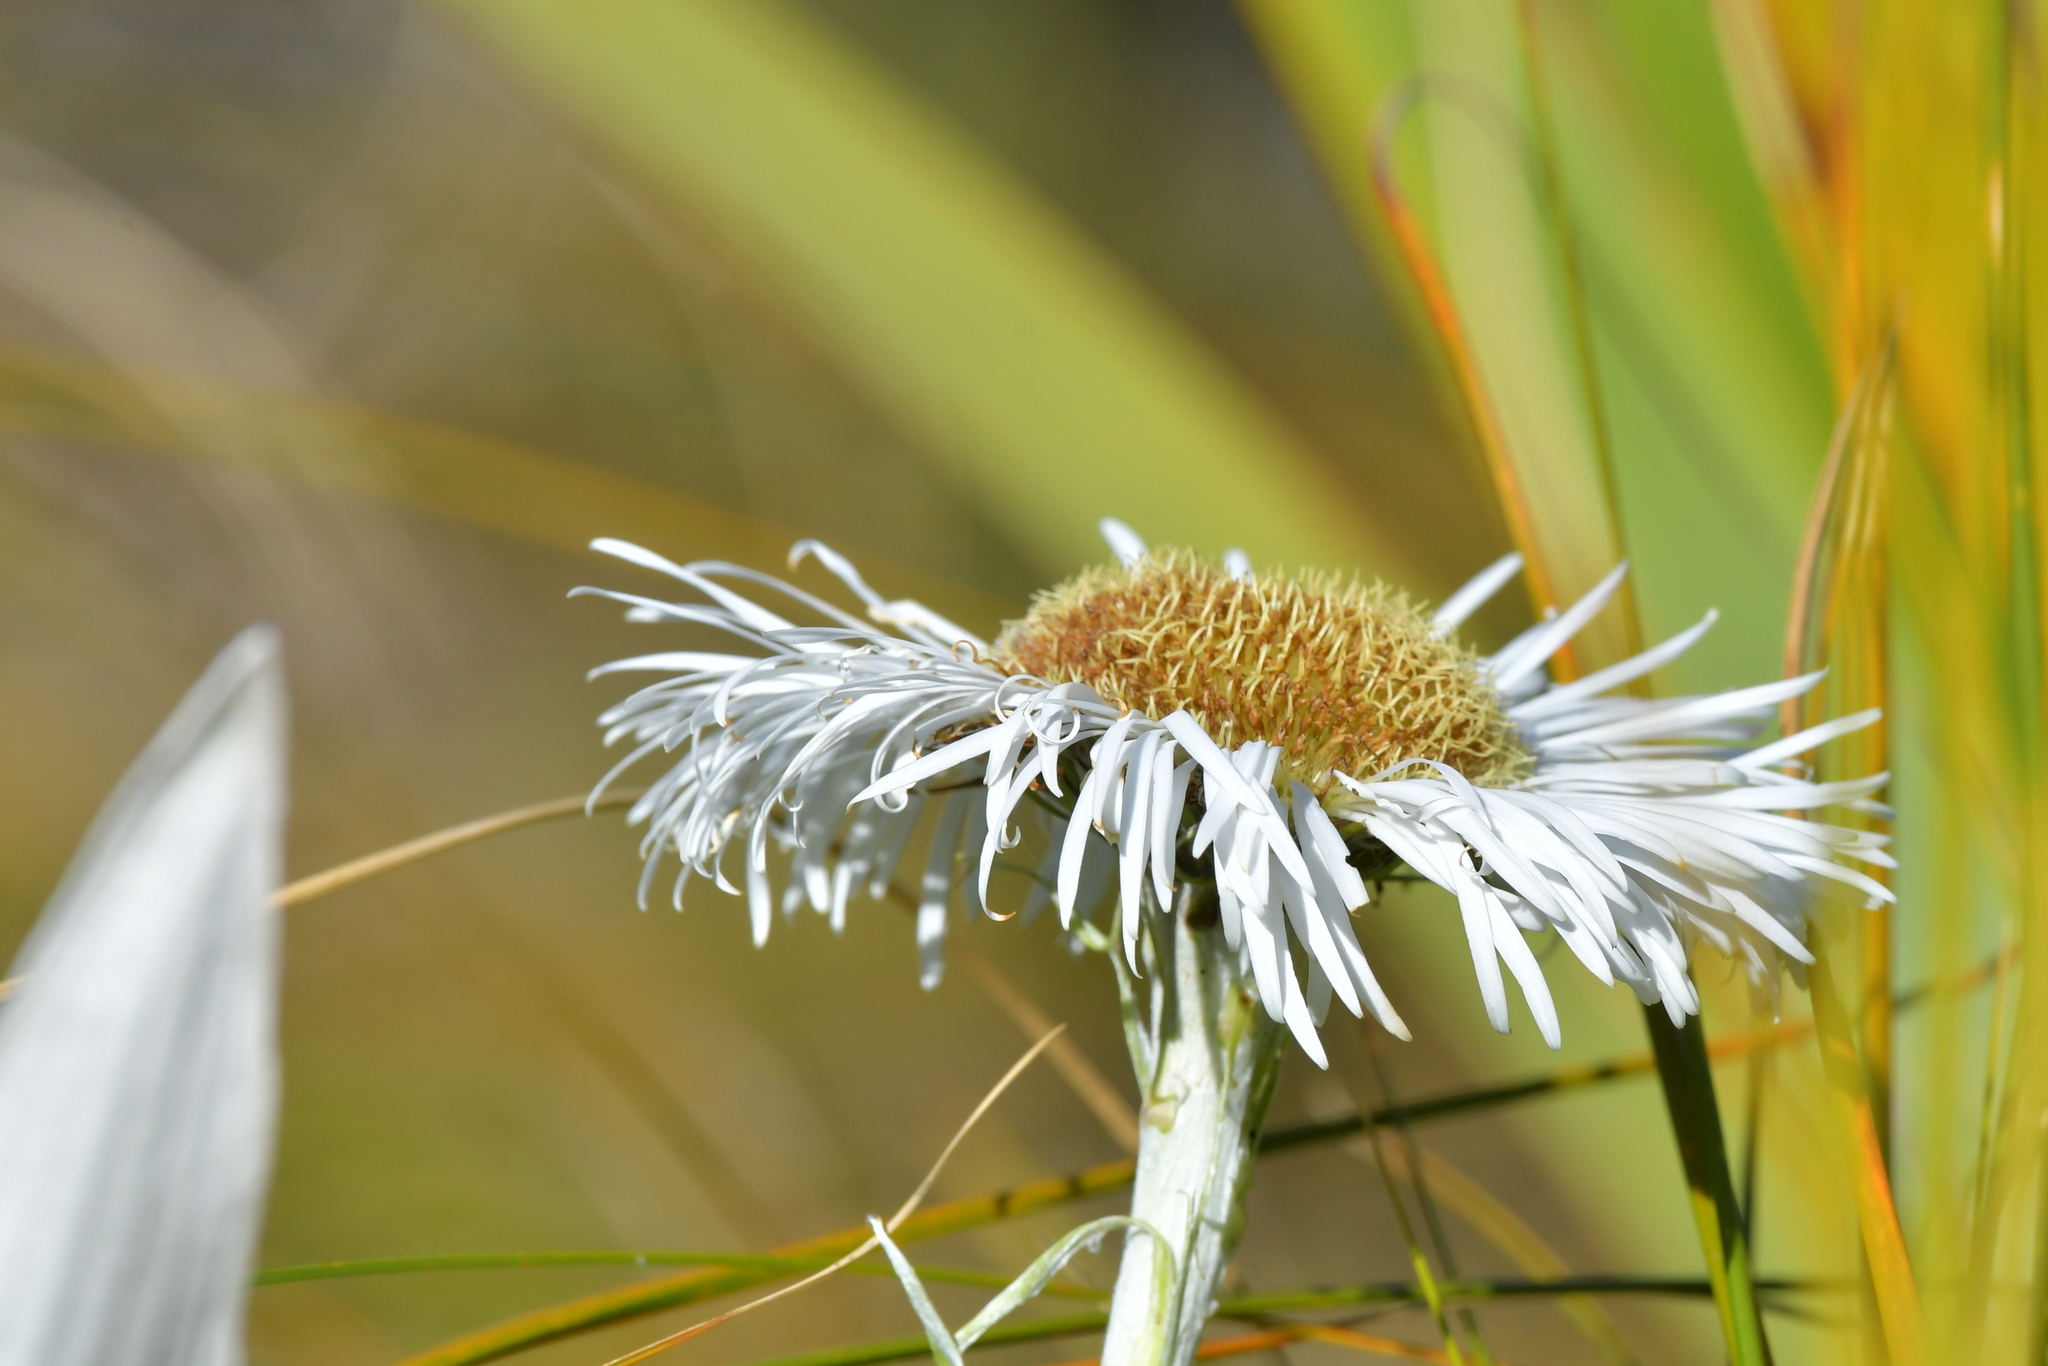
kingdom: Plantae
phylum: Tracheophyta
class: Magnoliopsida
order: Asterales
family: Asteraceae
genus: Celmisia
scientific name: Celmisia semicordata
